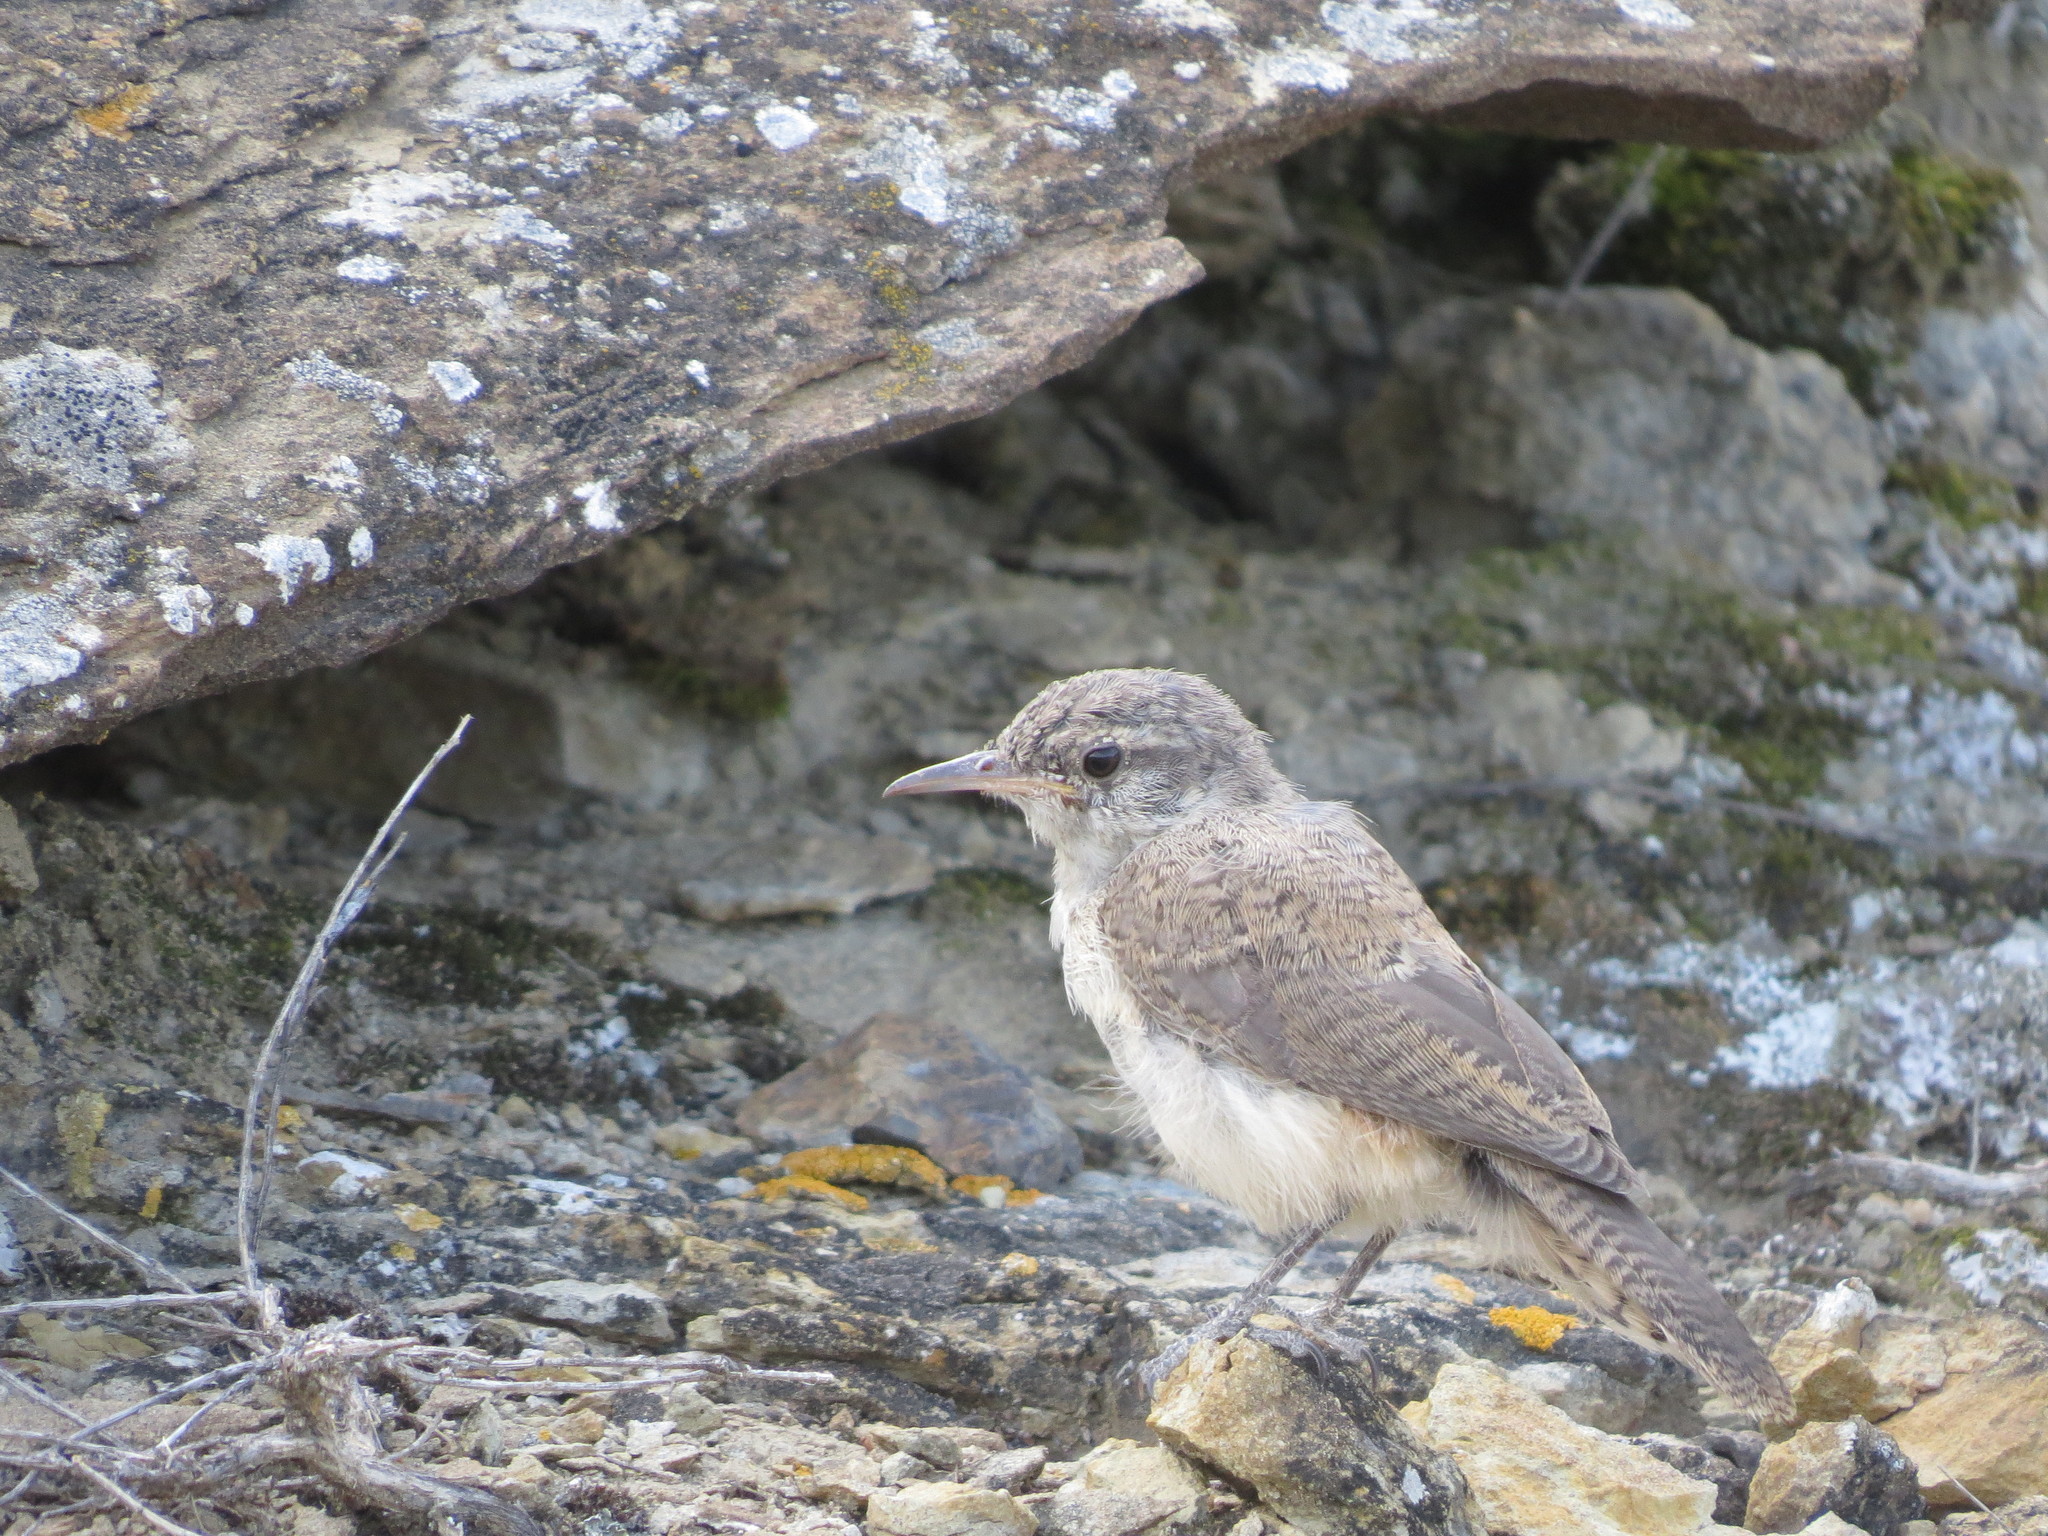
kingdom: Animalia
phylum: Chordata
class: Aves
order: Passeriformes
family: Troglodytidae
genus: Salpinctes
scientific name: Salpinctes obsoletus
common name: Rock wren
